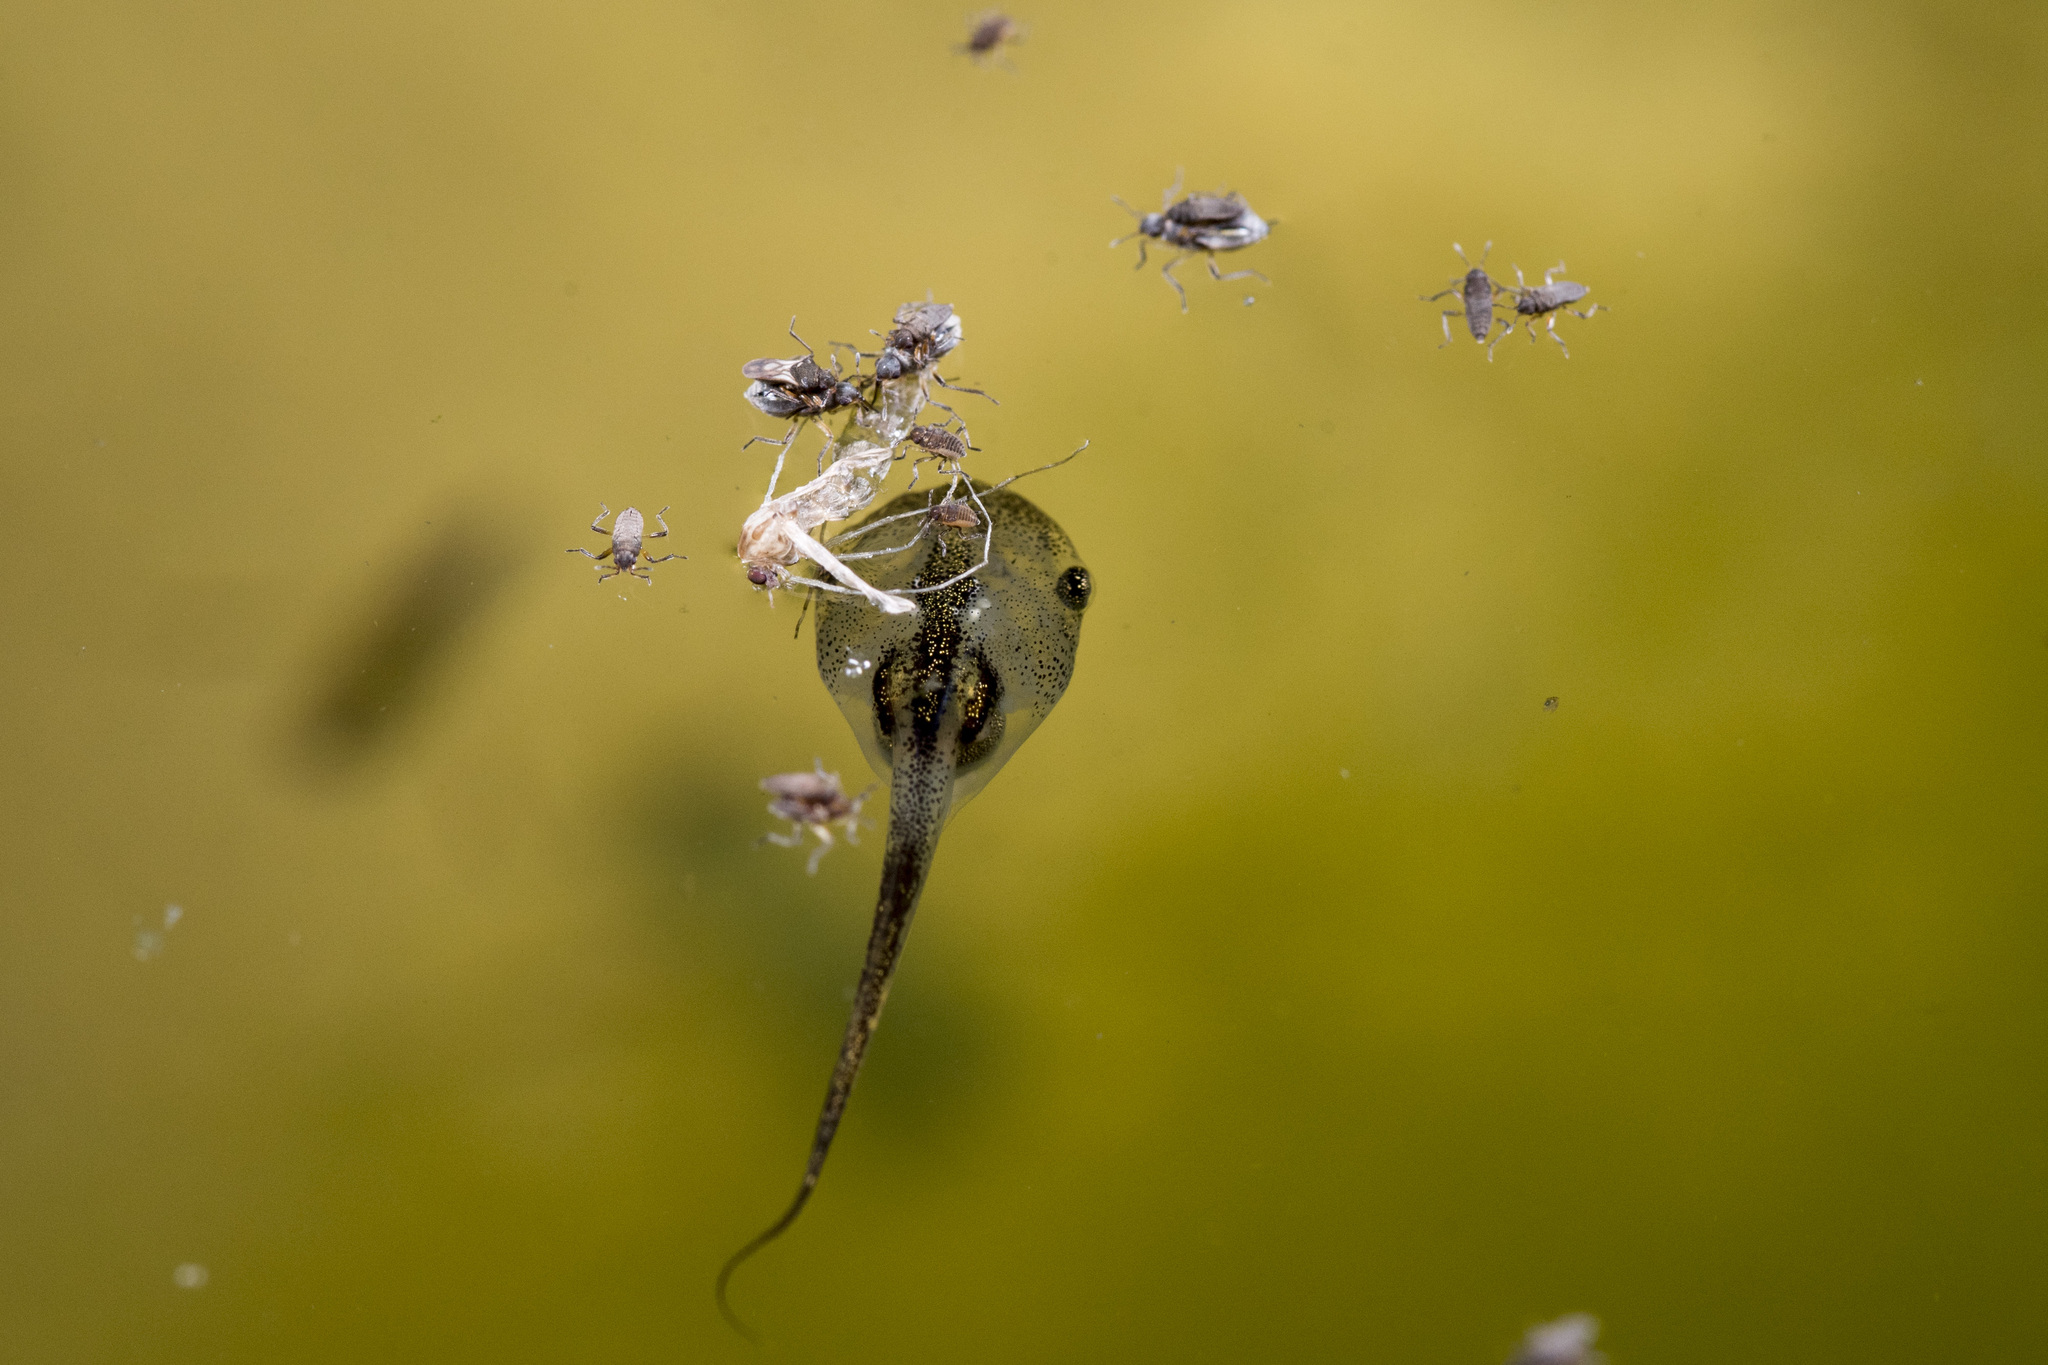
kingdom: Animalia
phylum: Arthropoda
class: Insecta
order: Hemiptera
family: Veliidae
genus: Microvelia
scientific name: Microvelia leveillei
